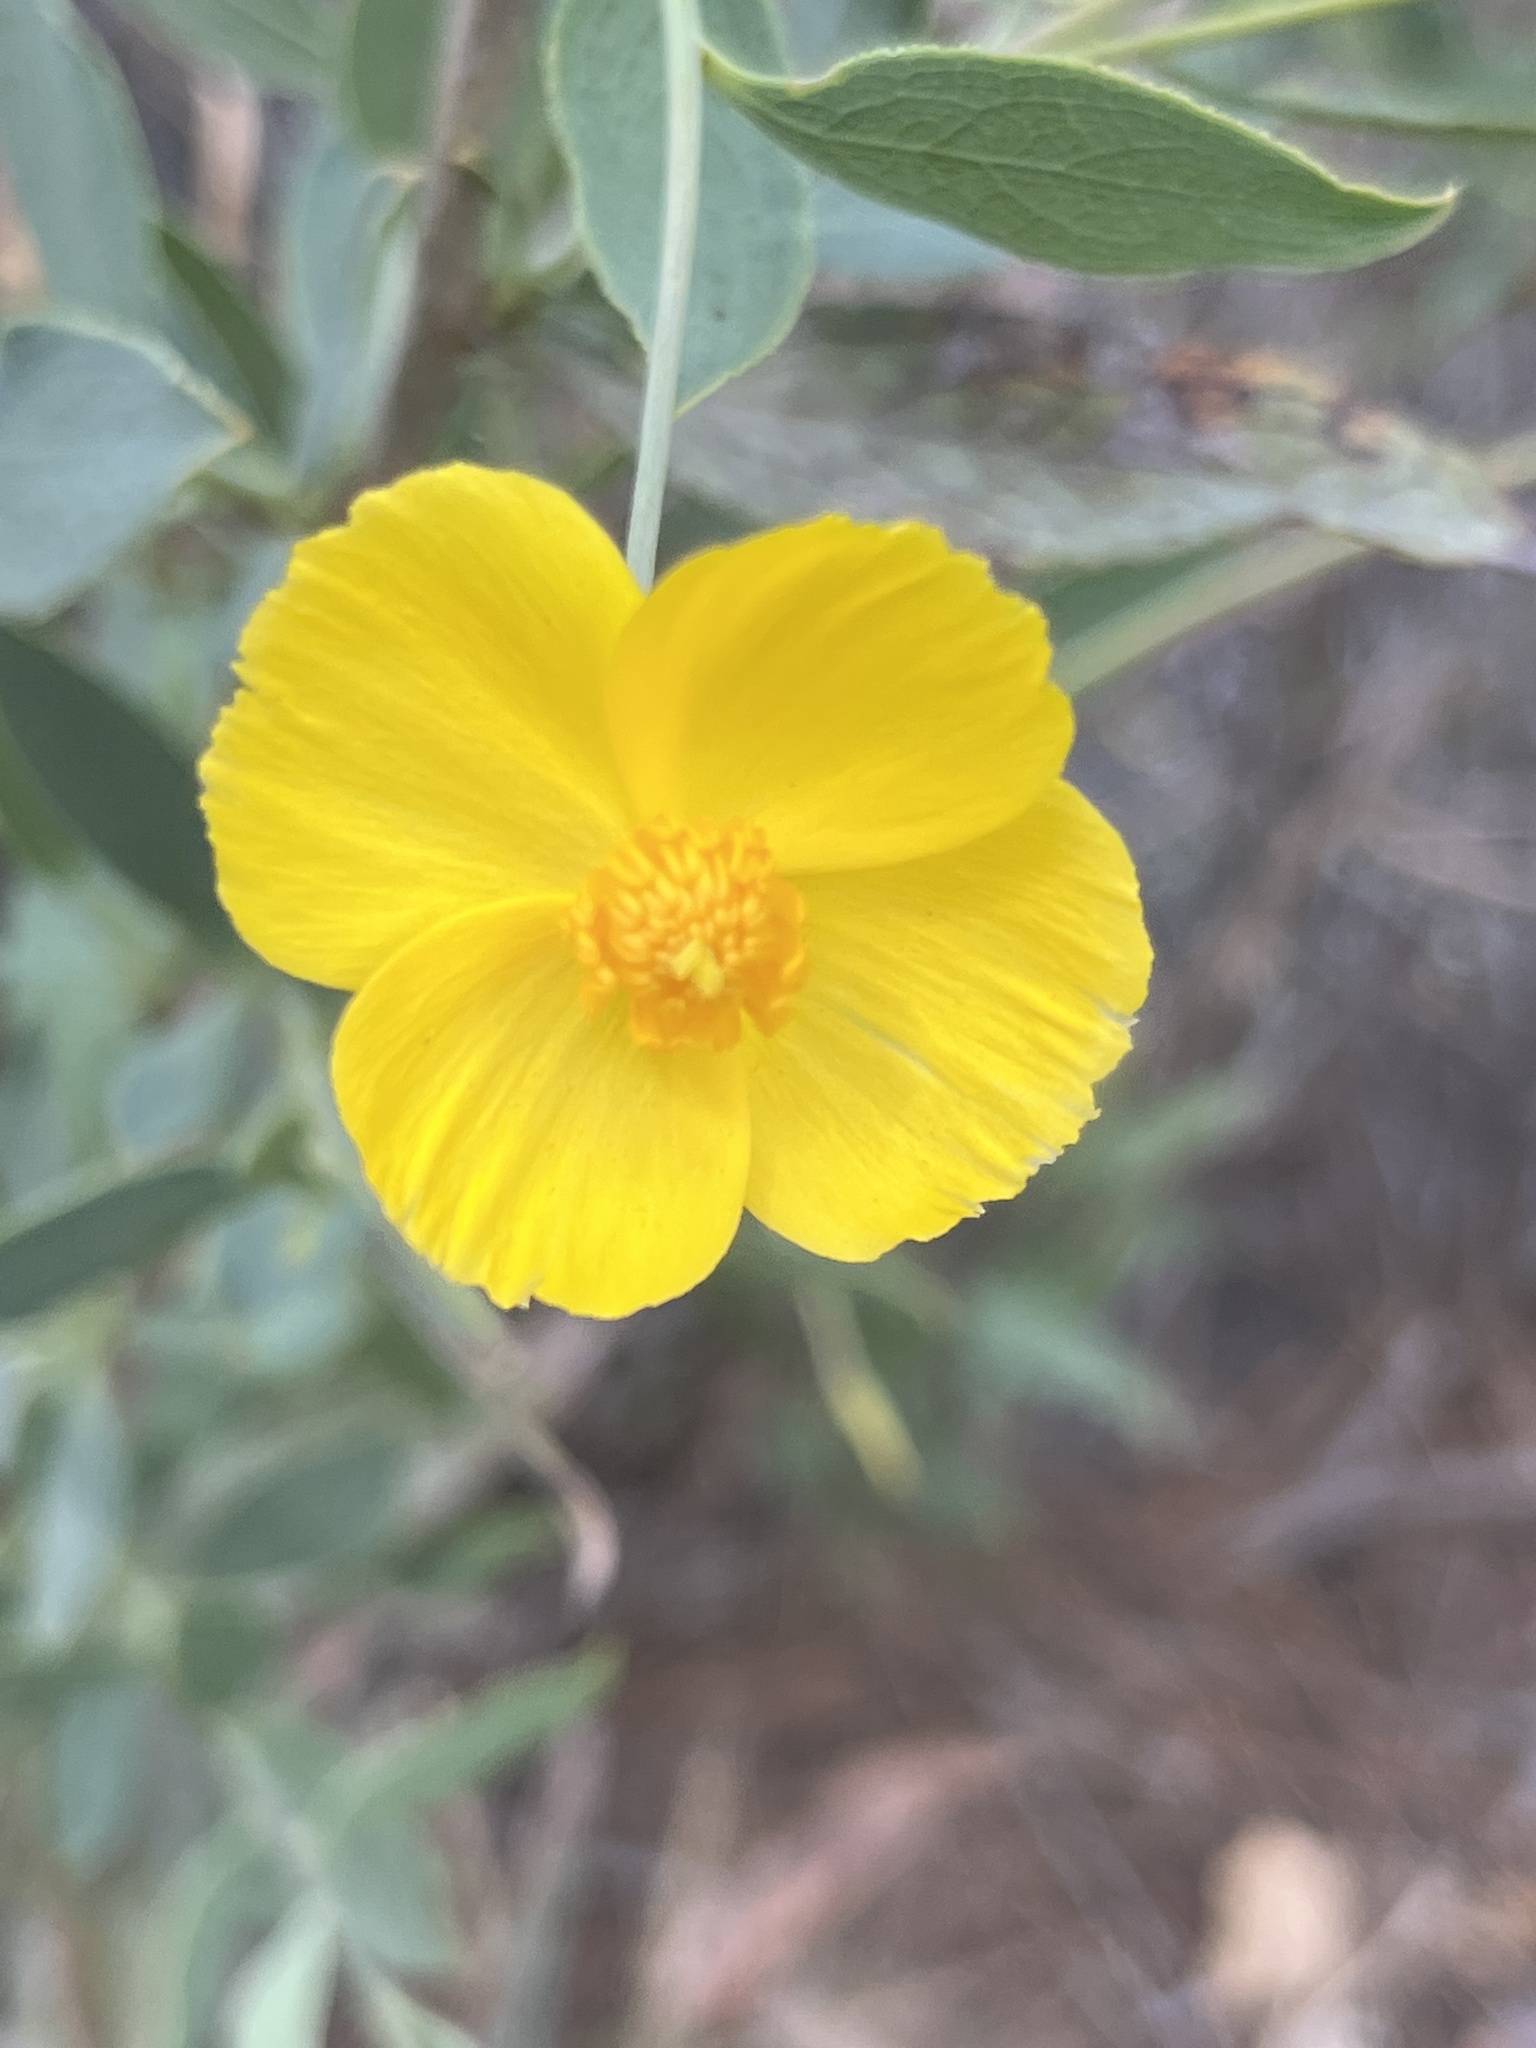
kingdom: Plantae
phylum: Tracheophyta
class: Magnoliopsida
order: Ranunculales
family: Papaveraceae
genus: Dendromecon
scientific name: Dendromecon rigida
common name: Tree poppy
